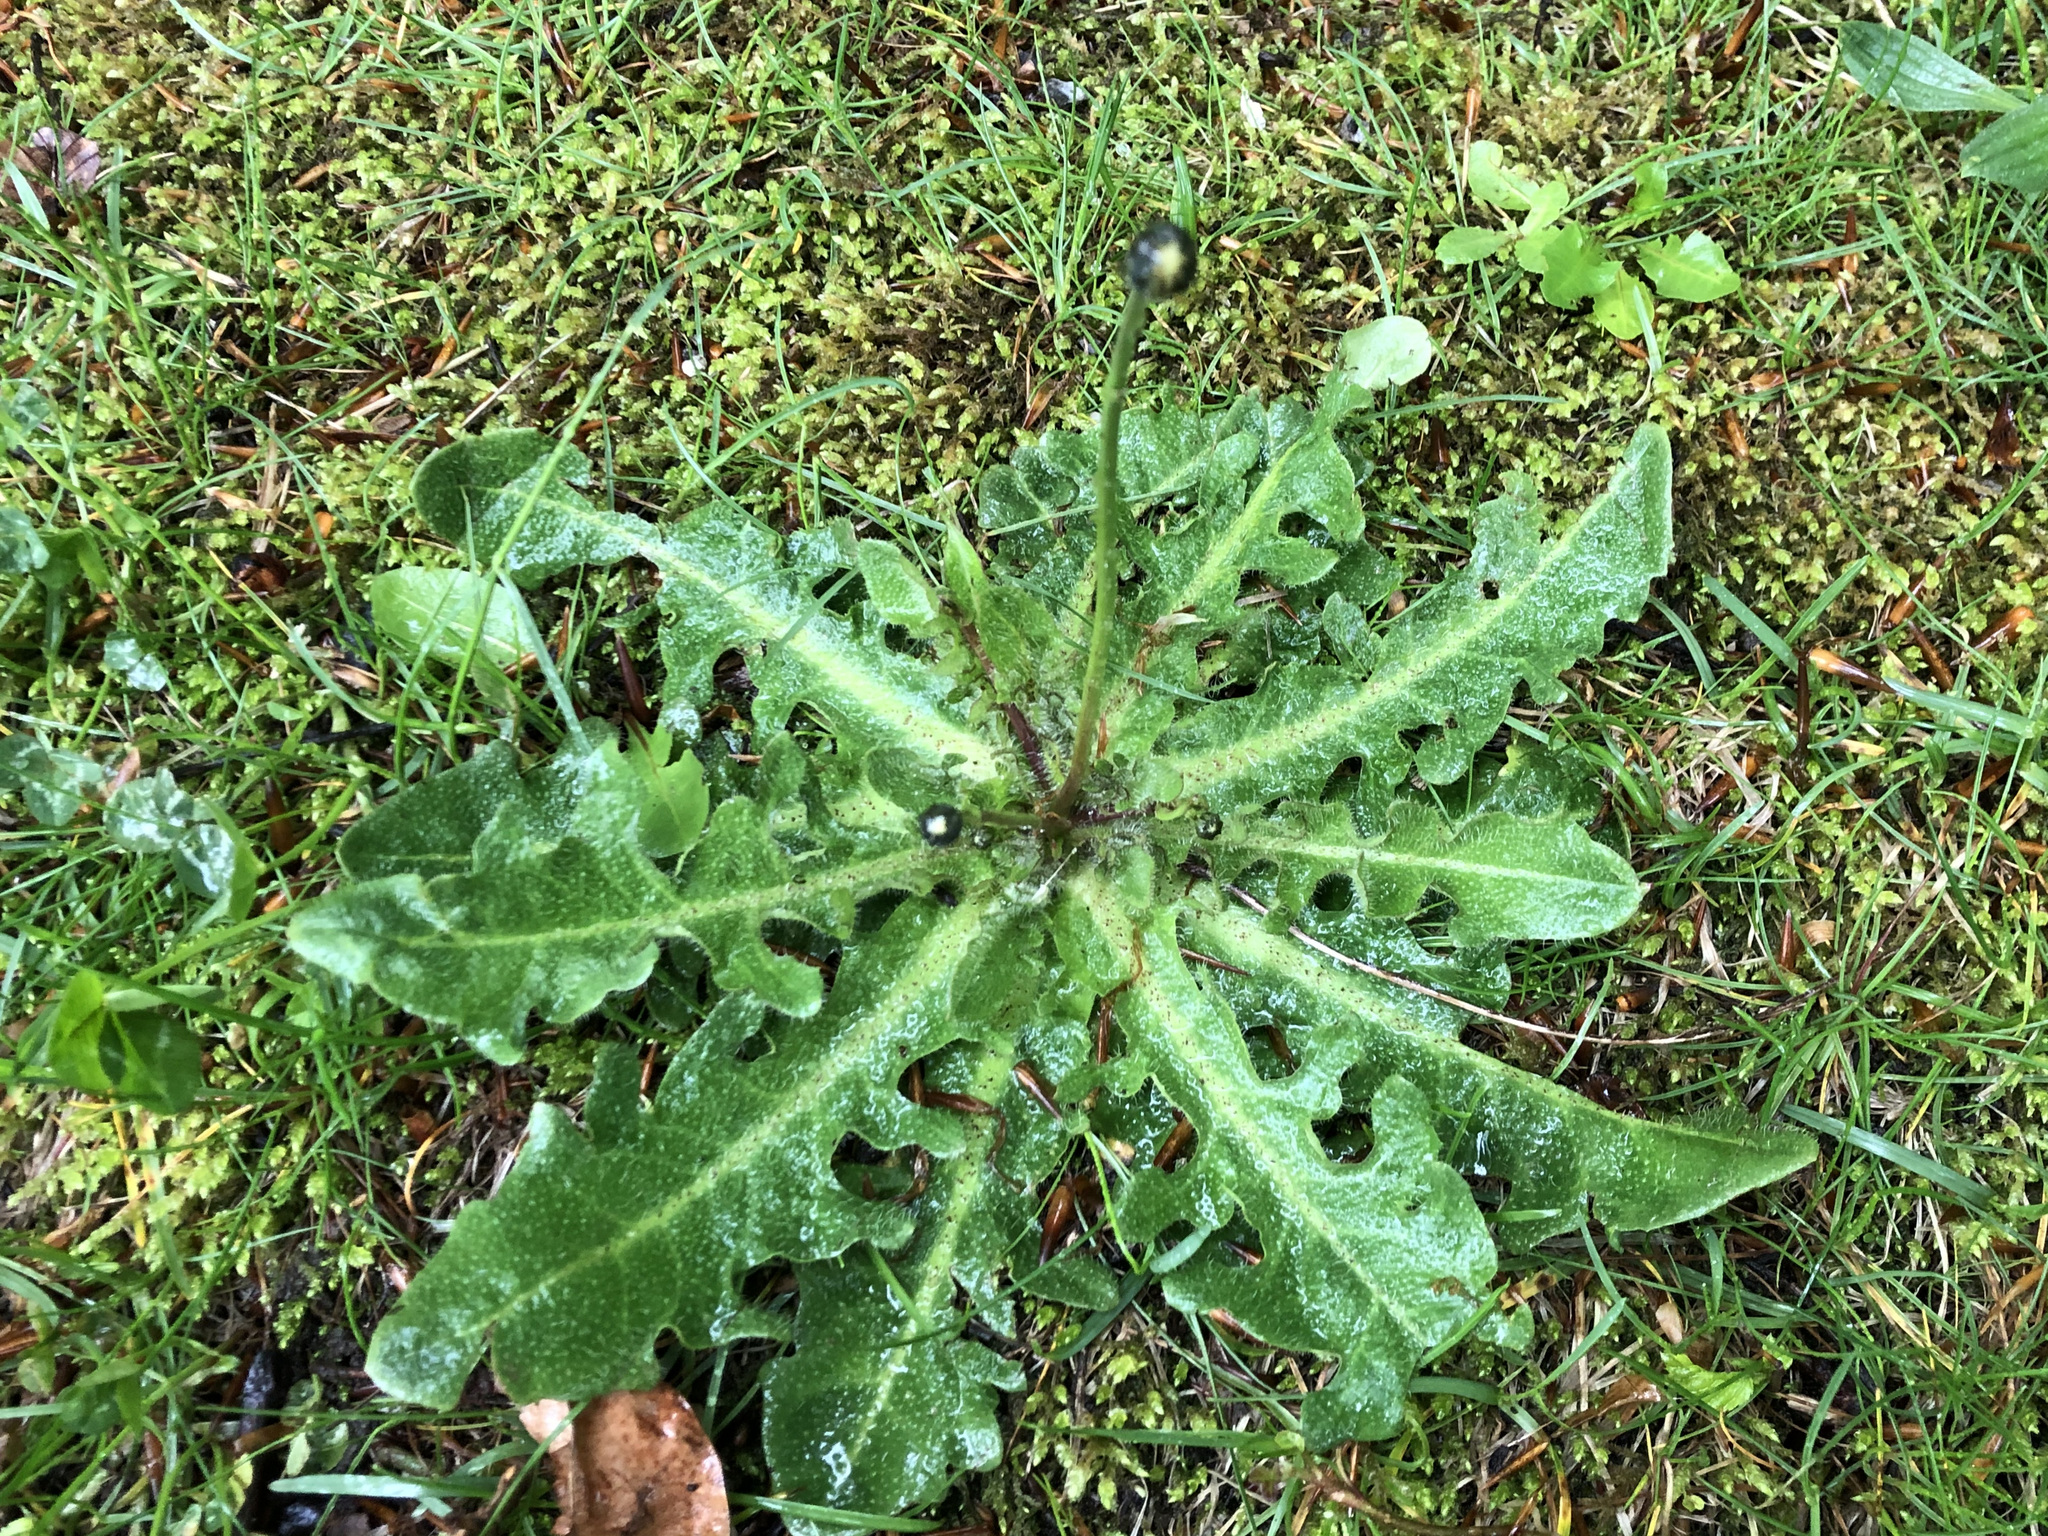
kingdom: Plantae
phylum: Tracheophyta
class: Magnoliopsida
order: Asterales
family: Asteraceae
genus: Hypochaeris
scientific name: Hypochaeris radicata
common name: Flatweed
